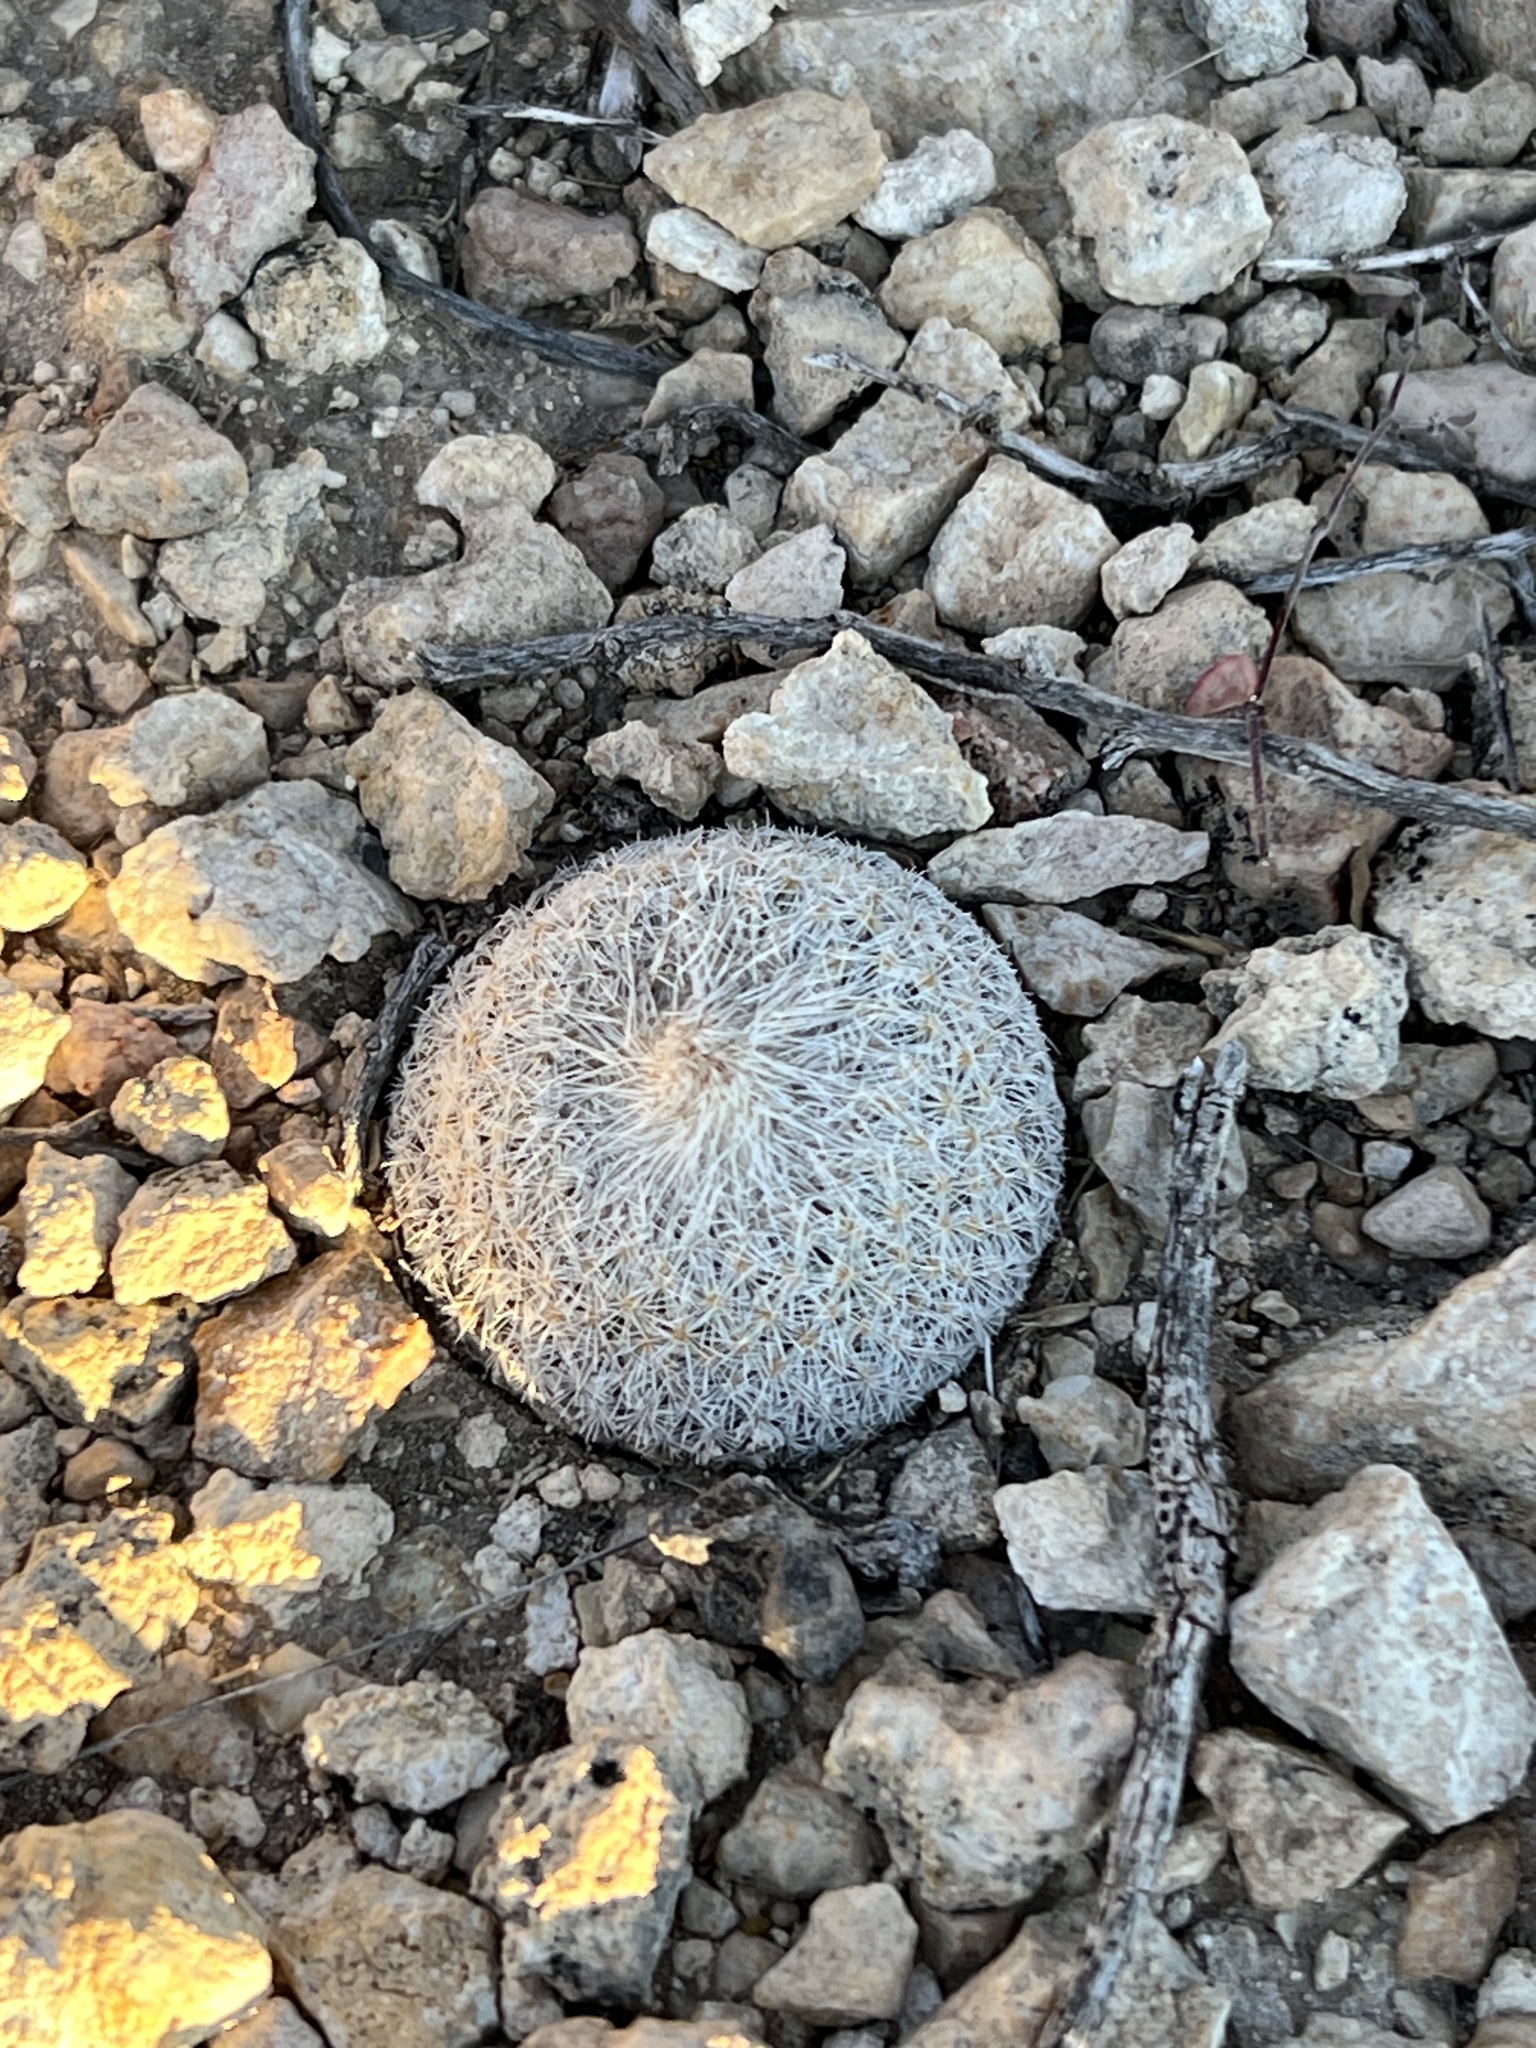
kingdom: Plantae
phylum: Tracheophyta
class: Magnoliopsida
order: Caryophyllales
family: Cactaceae
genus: Epithelantha
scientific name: Epithelantha micromeris
